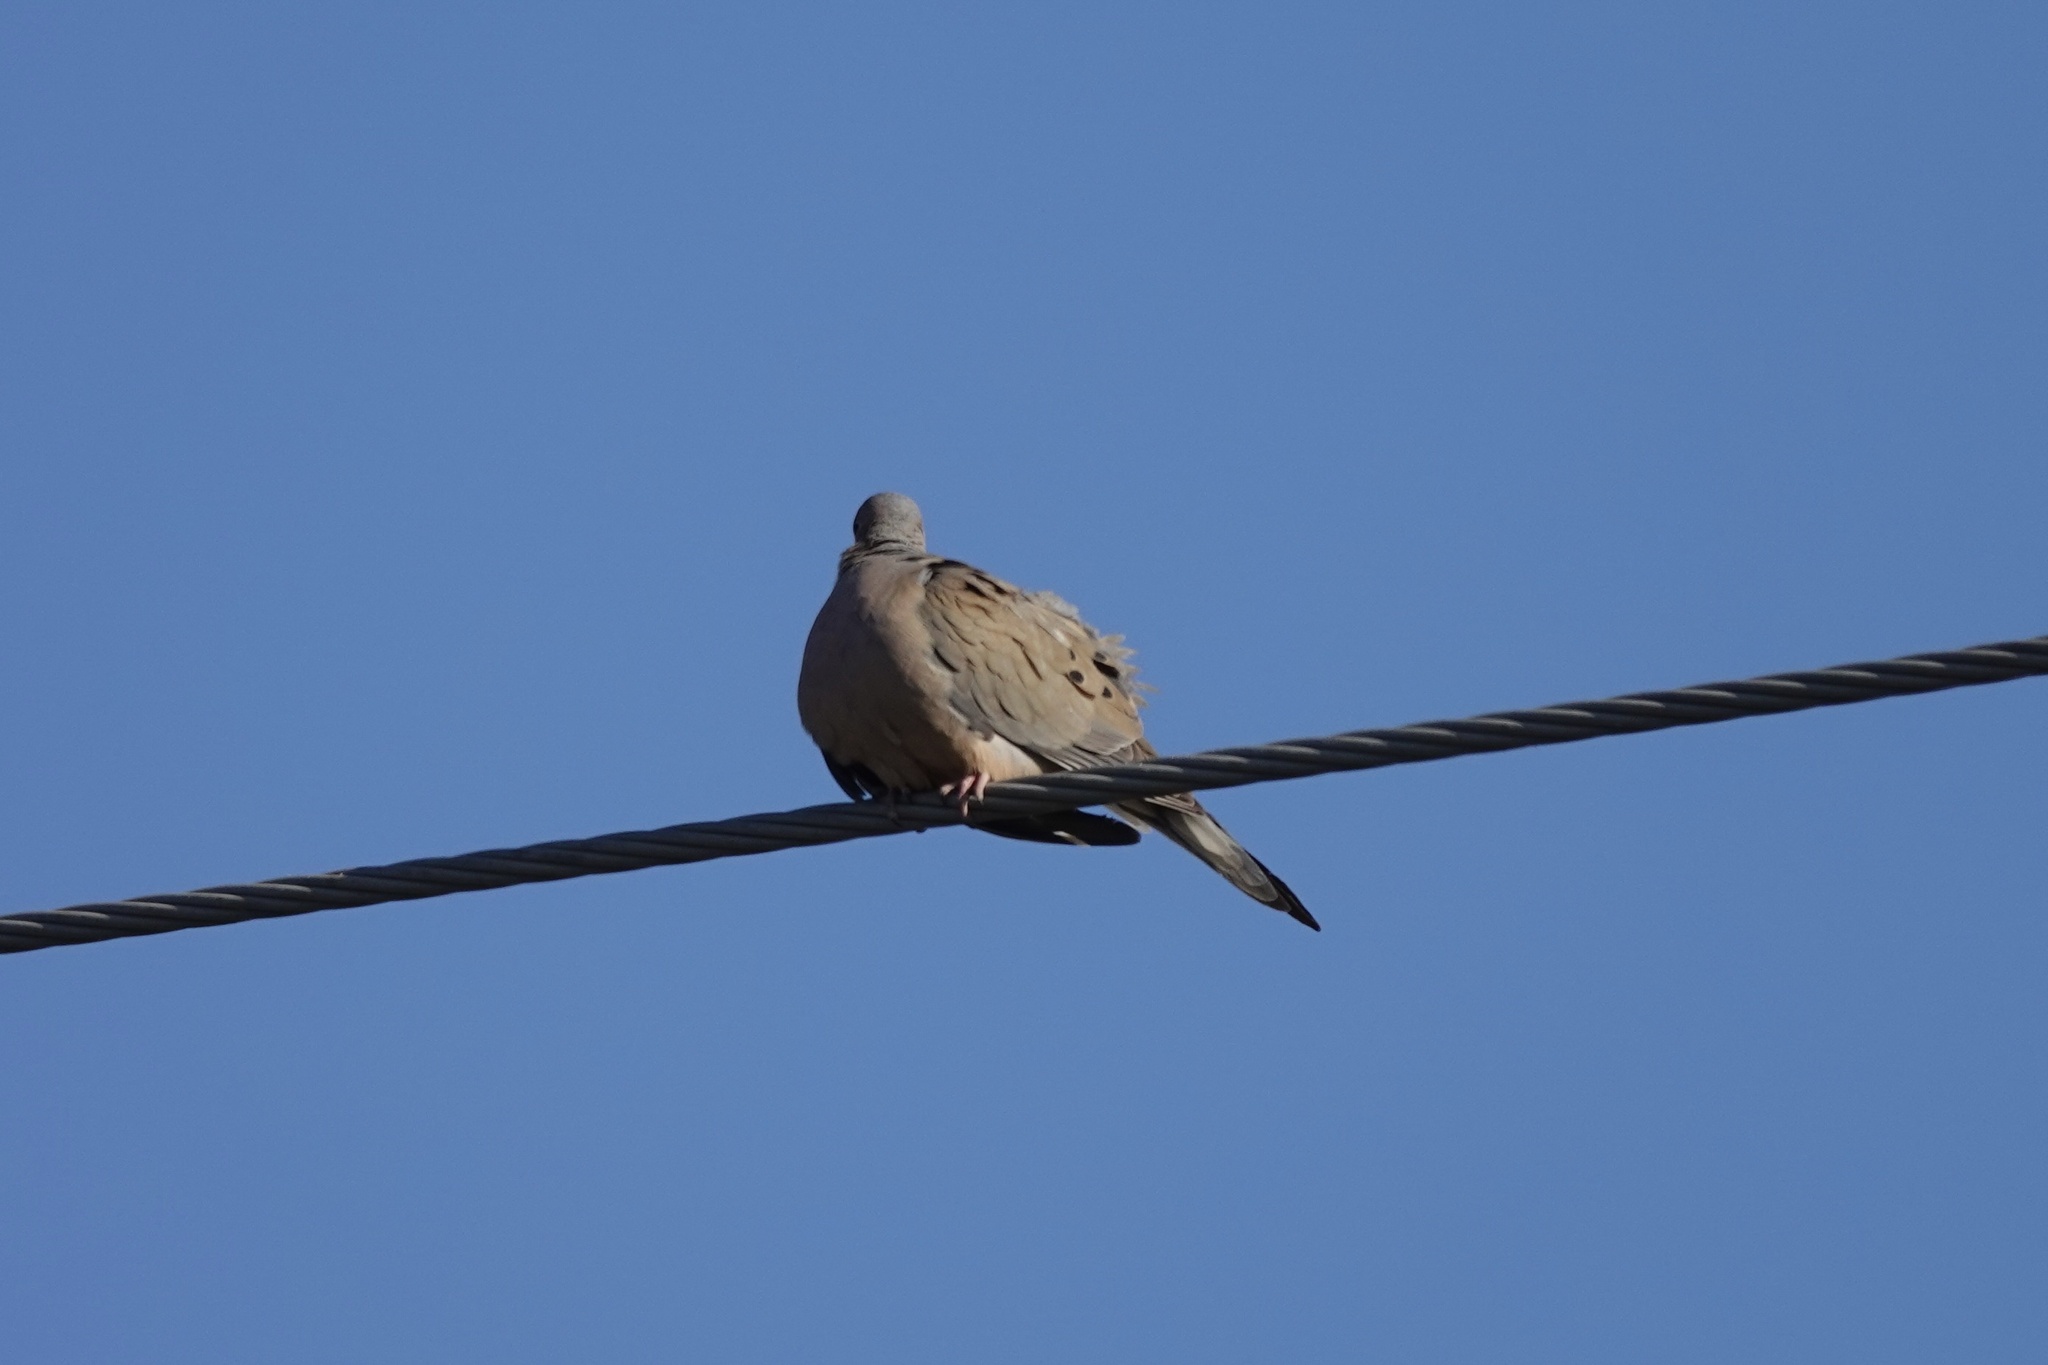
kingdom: Animalia
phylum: Chordata
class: Aves
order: Columbiformes
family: Columbidae
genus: Zenaida
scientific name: Zenaida macroura
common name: Mourning dove
